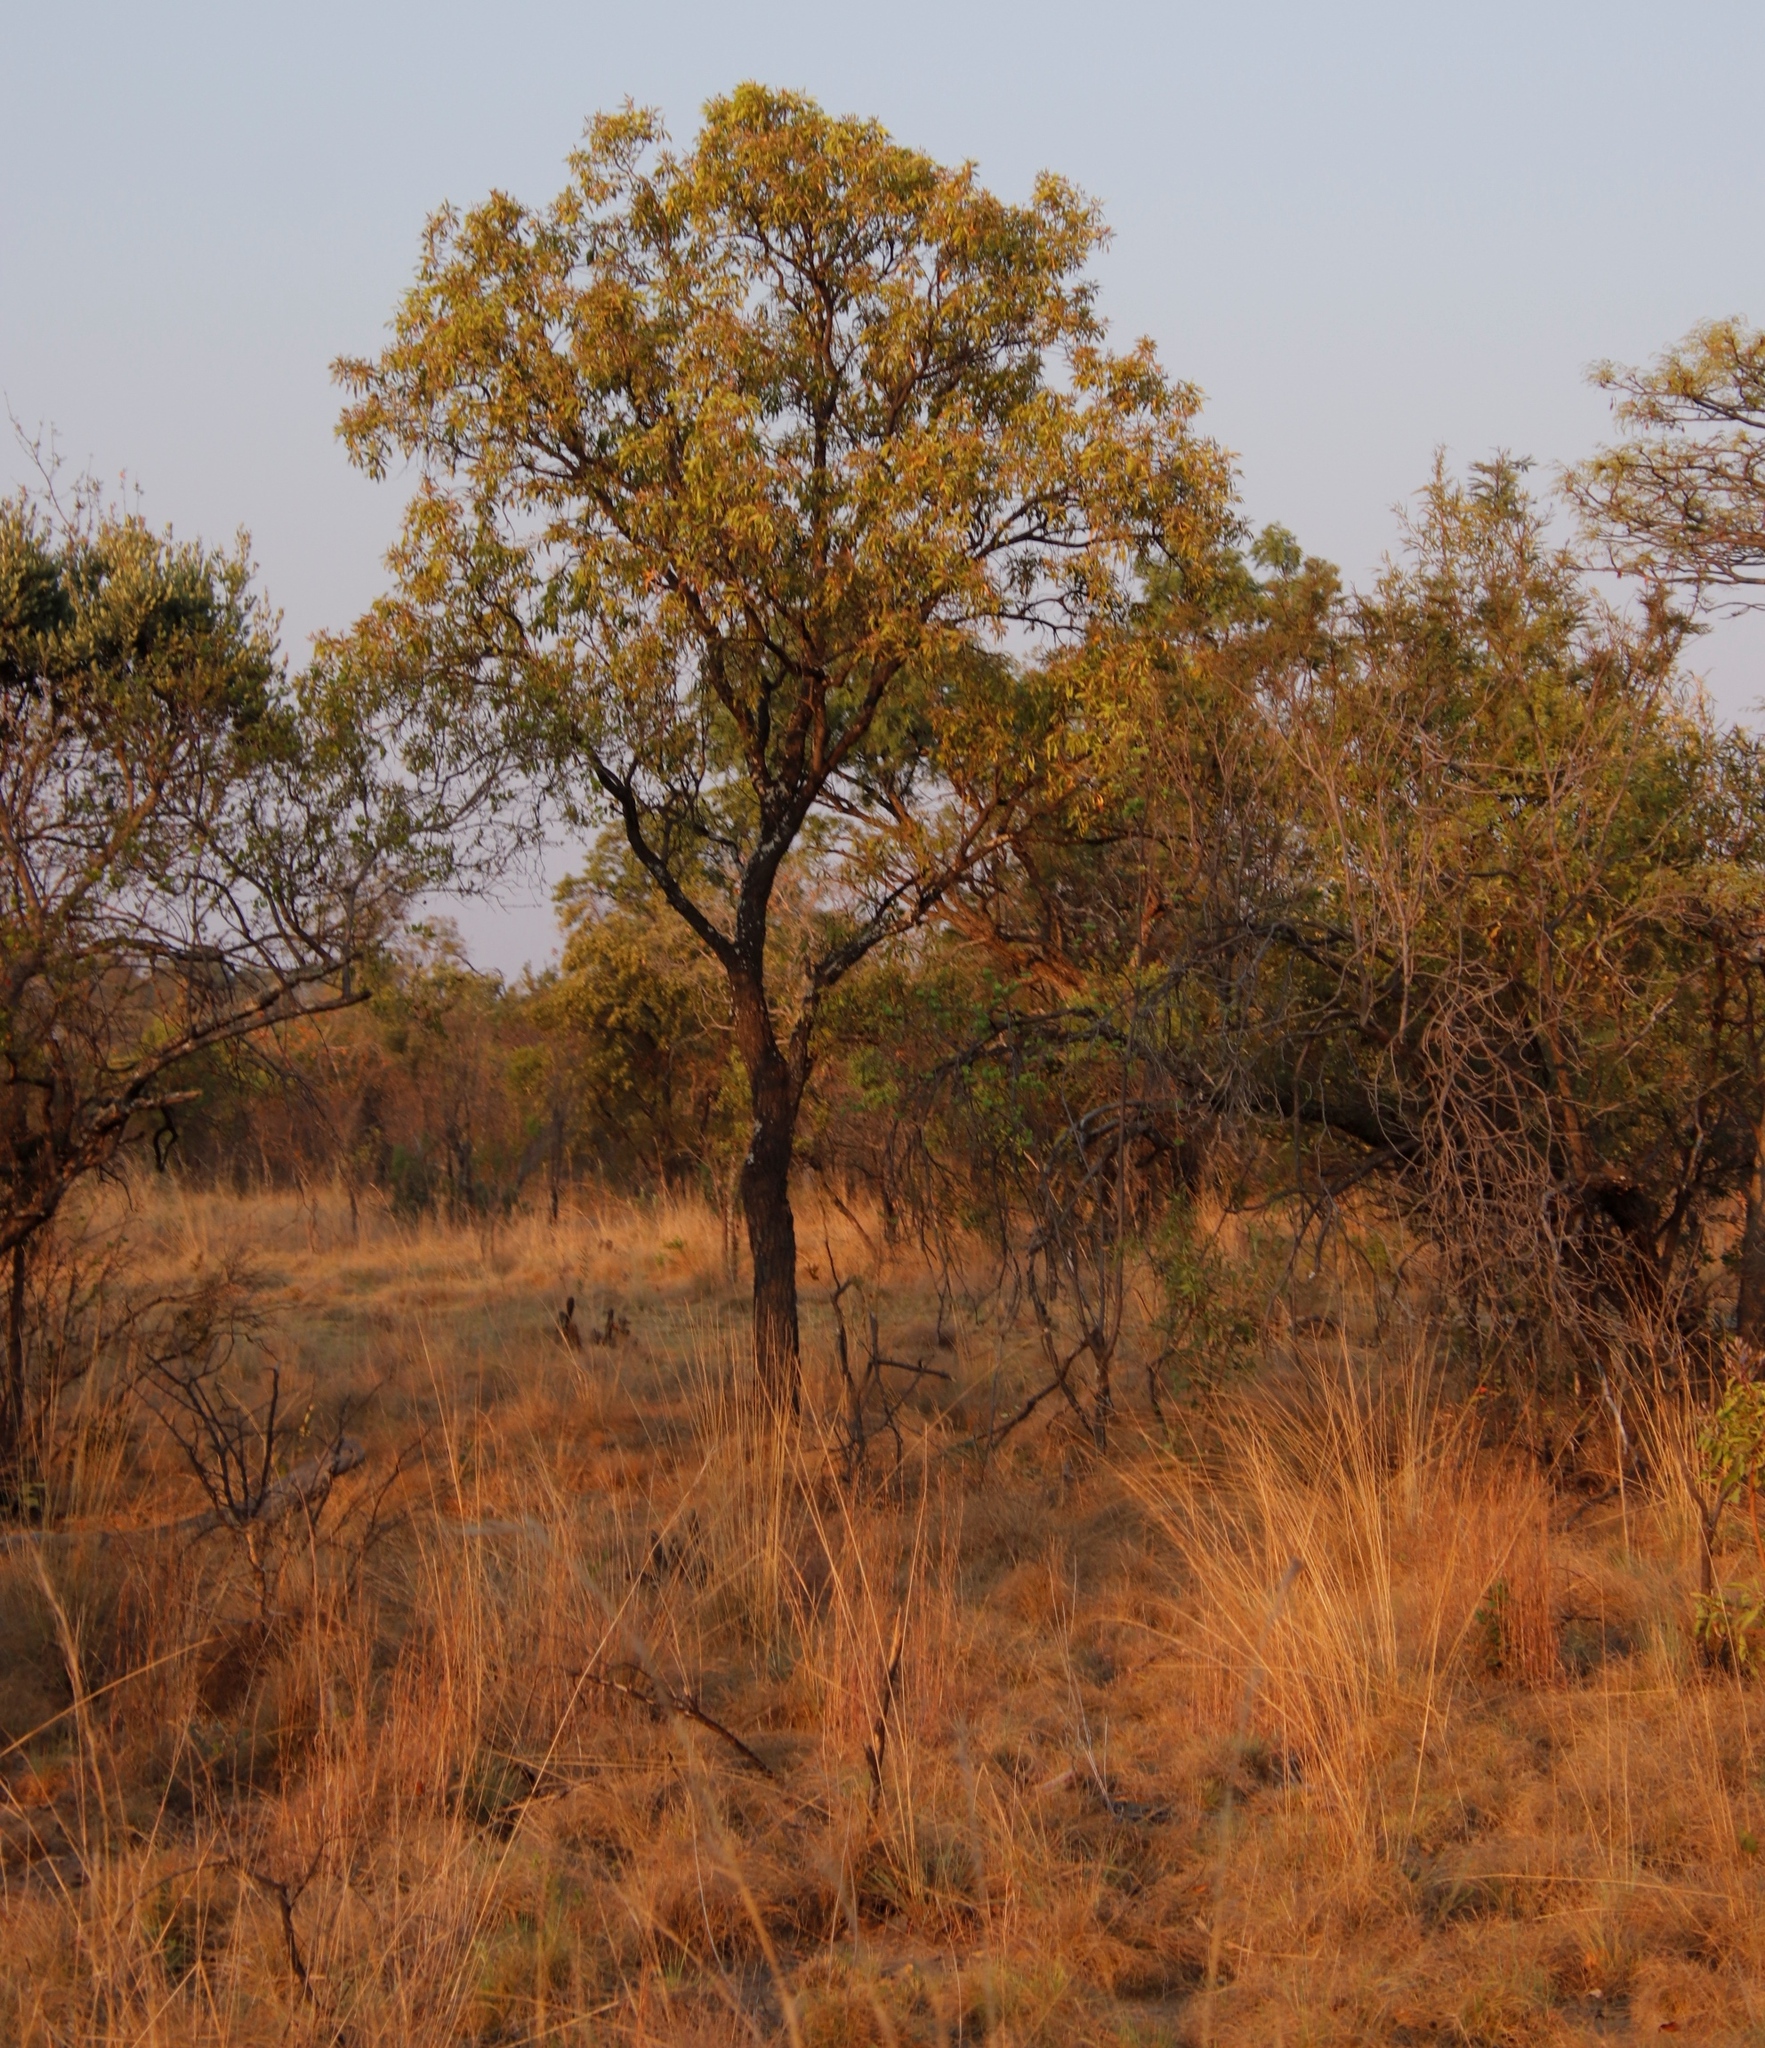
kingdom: Plantae
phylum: Tracheophyta
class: Magnoliopsida
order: Proteales
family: Proteaceae
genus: Faurea
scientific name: Faurea saligna
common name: African bean
